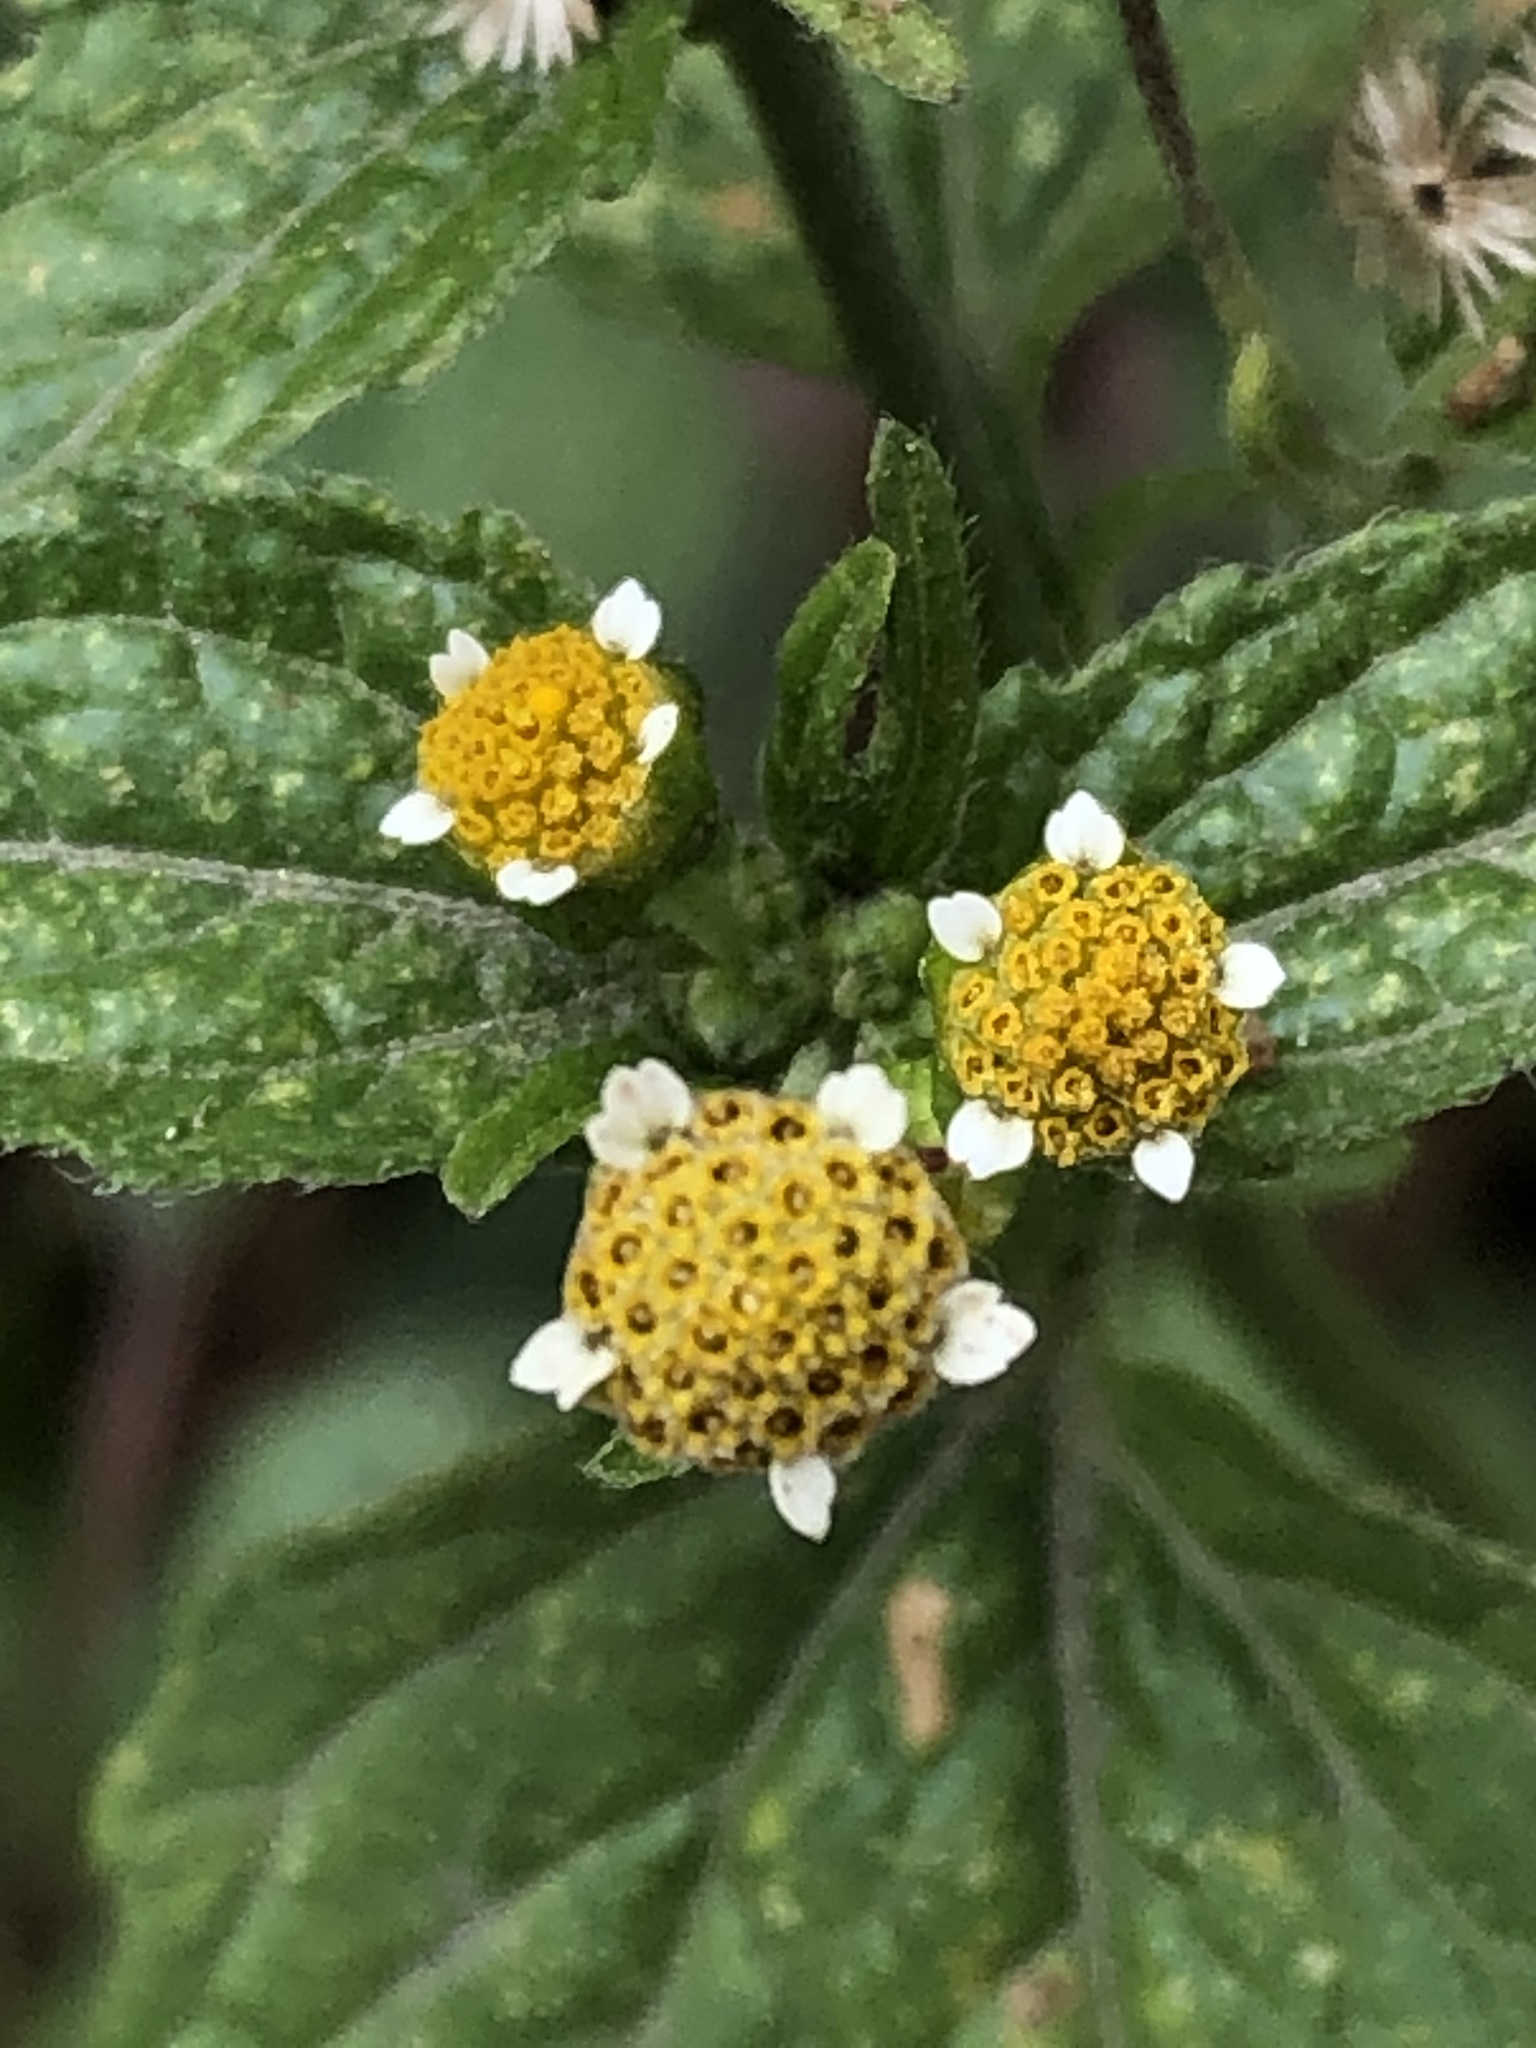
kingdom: Plantae
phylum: Tracheophyta
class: Magnoliopsida
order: Asterales
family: Asteraceae
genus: Galinsoga
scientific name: Galinsoga parviflora
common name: Gallant soldier
